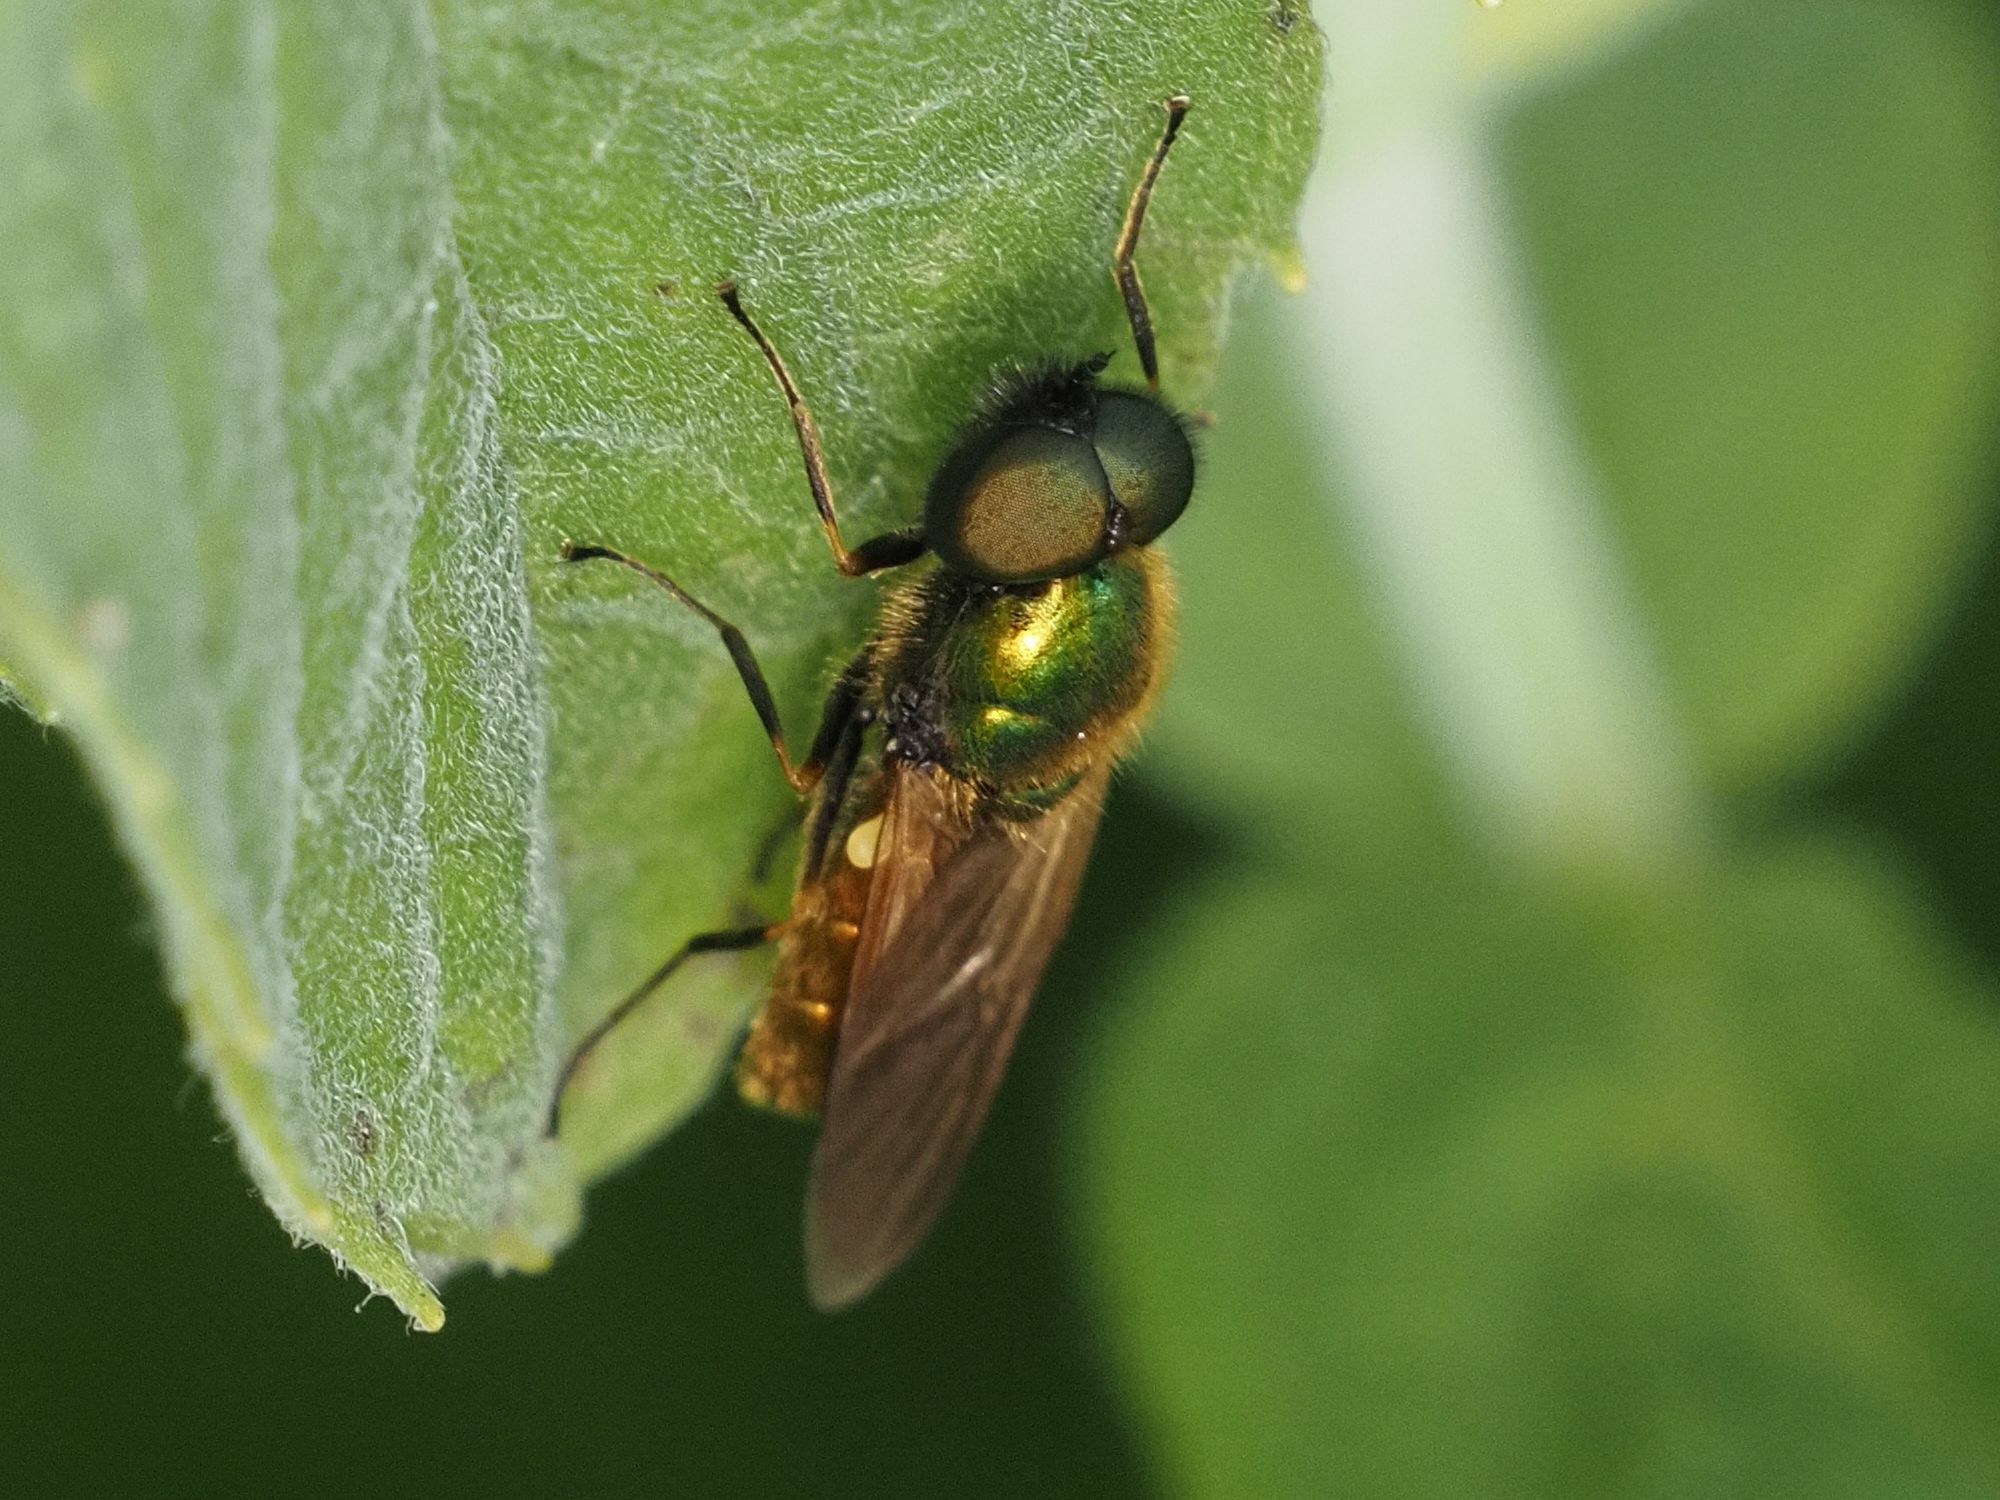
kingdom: Animalia
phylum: Arthropoda
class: Insecta
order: Diptera
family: Stratiomyidae
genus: Chloromyia
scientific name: Chloromyia formosa
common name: Soldier fly
